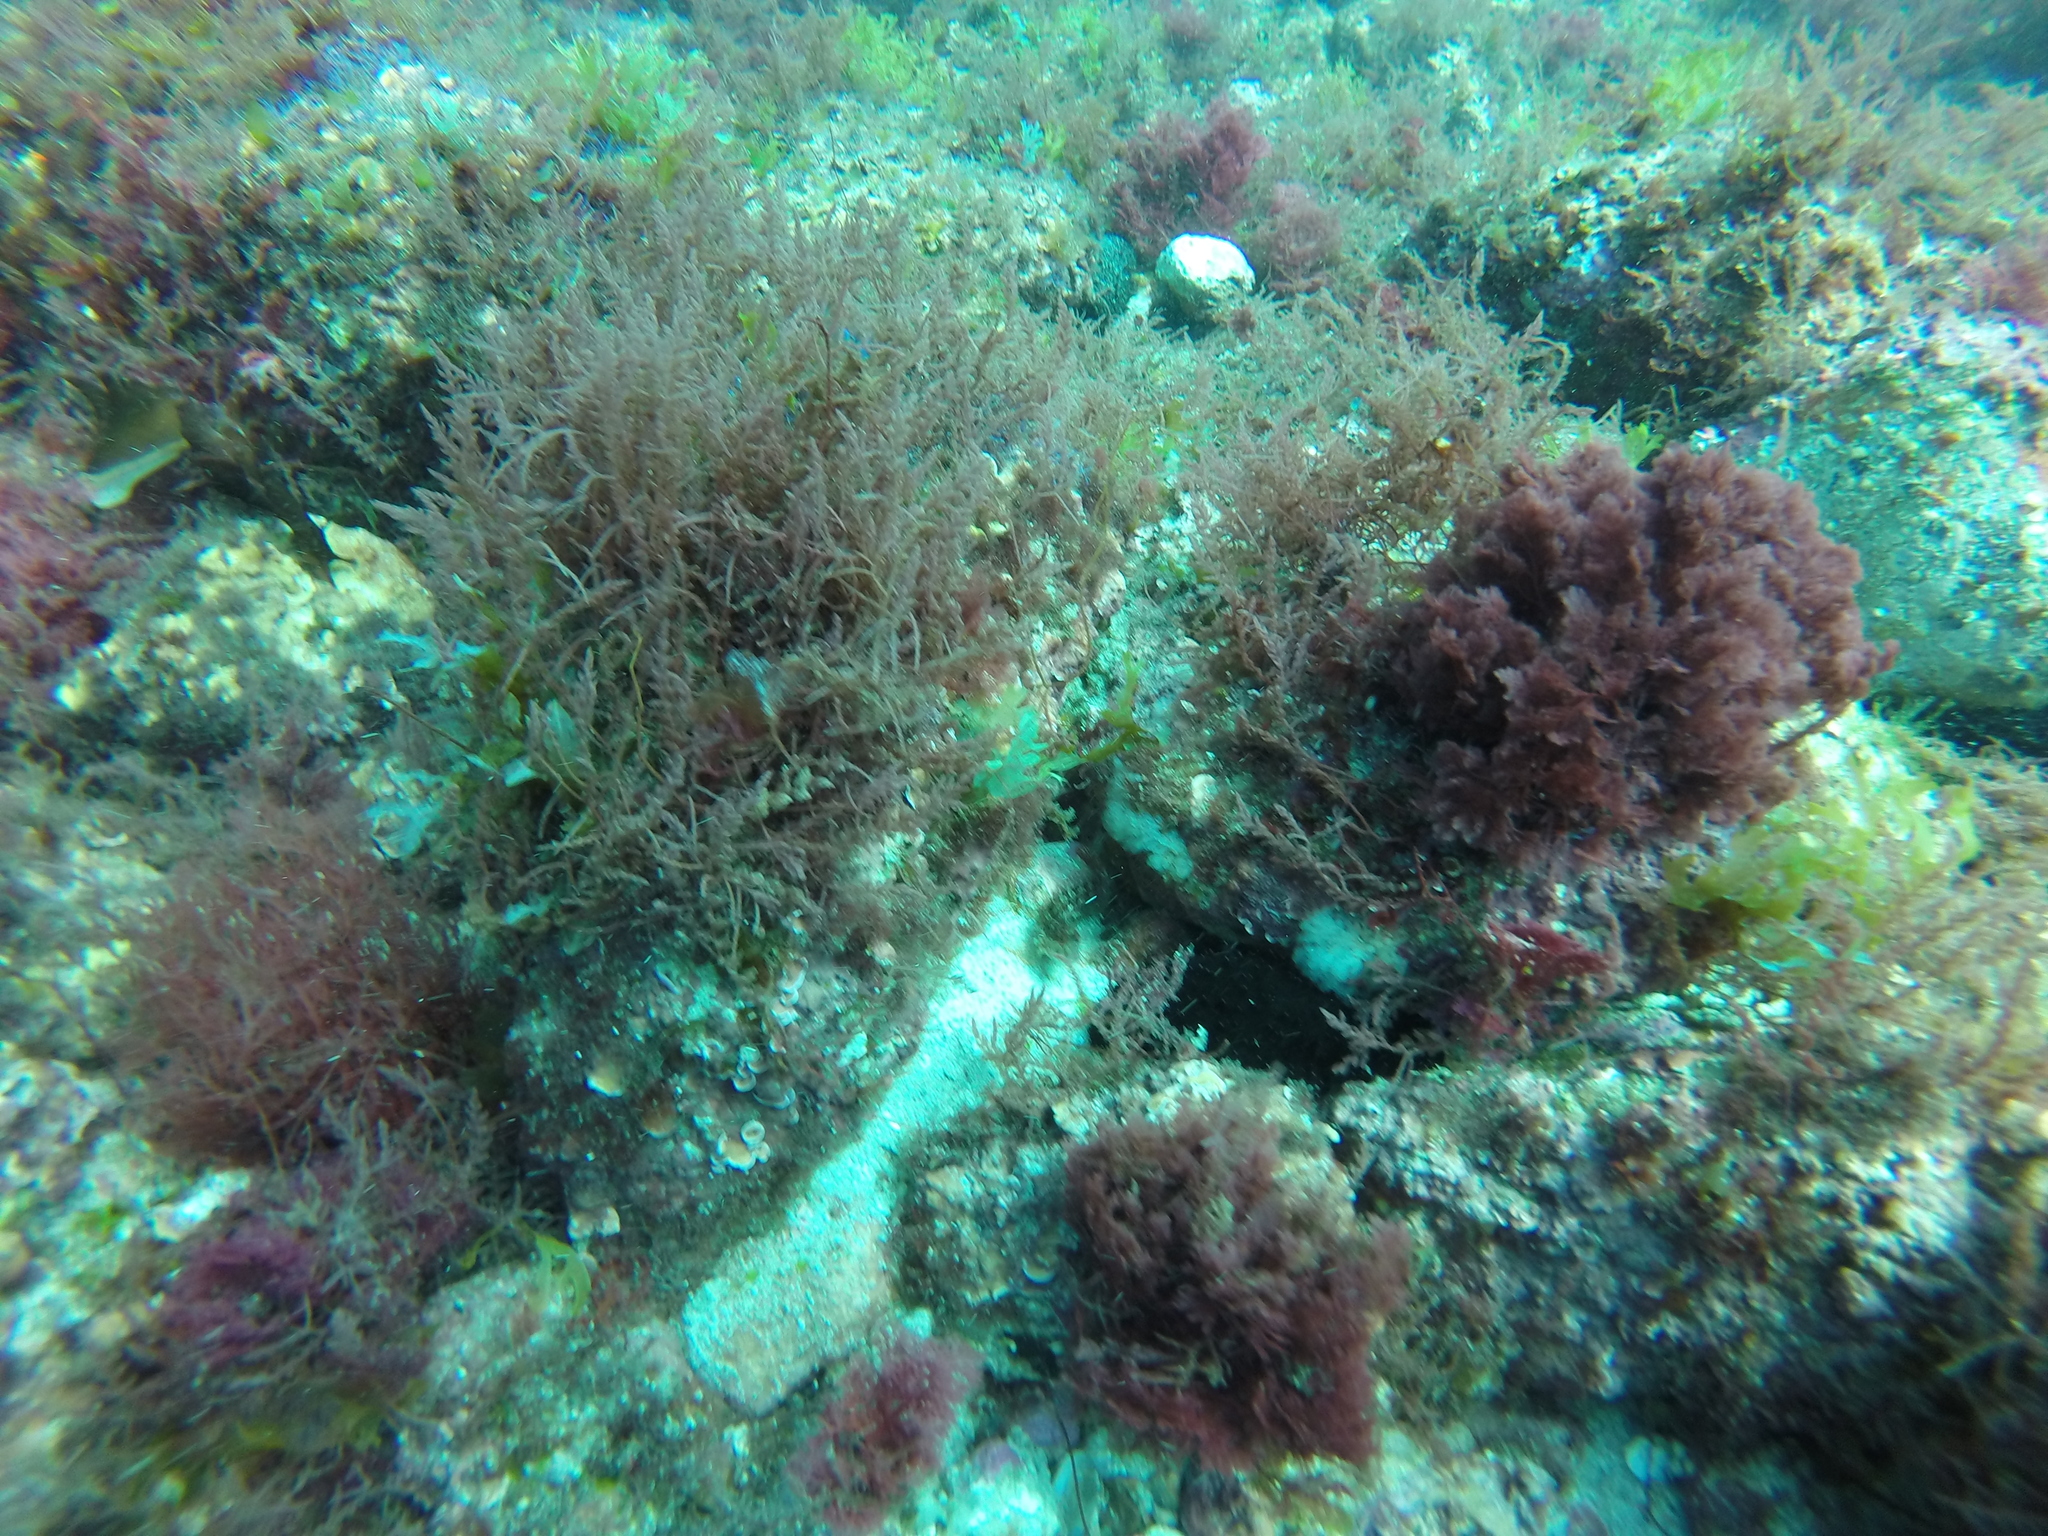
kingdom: Plantae
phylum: Rhodophyta
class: Florideophyceae
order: Bonnemaisoniales
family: Bonnemaisoniaceae
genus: Asparagopsis
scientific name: Asparagopsis armata
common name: Harpoon weed
